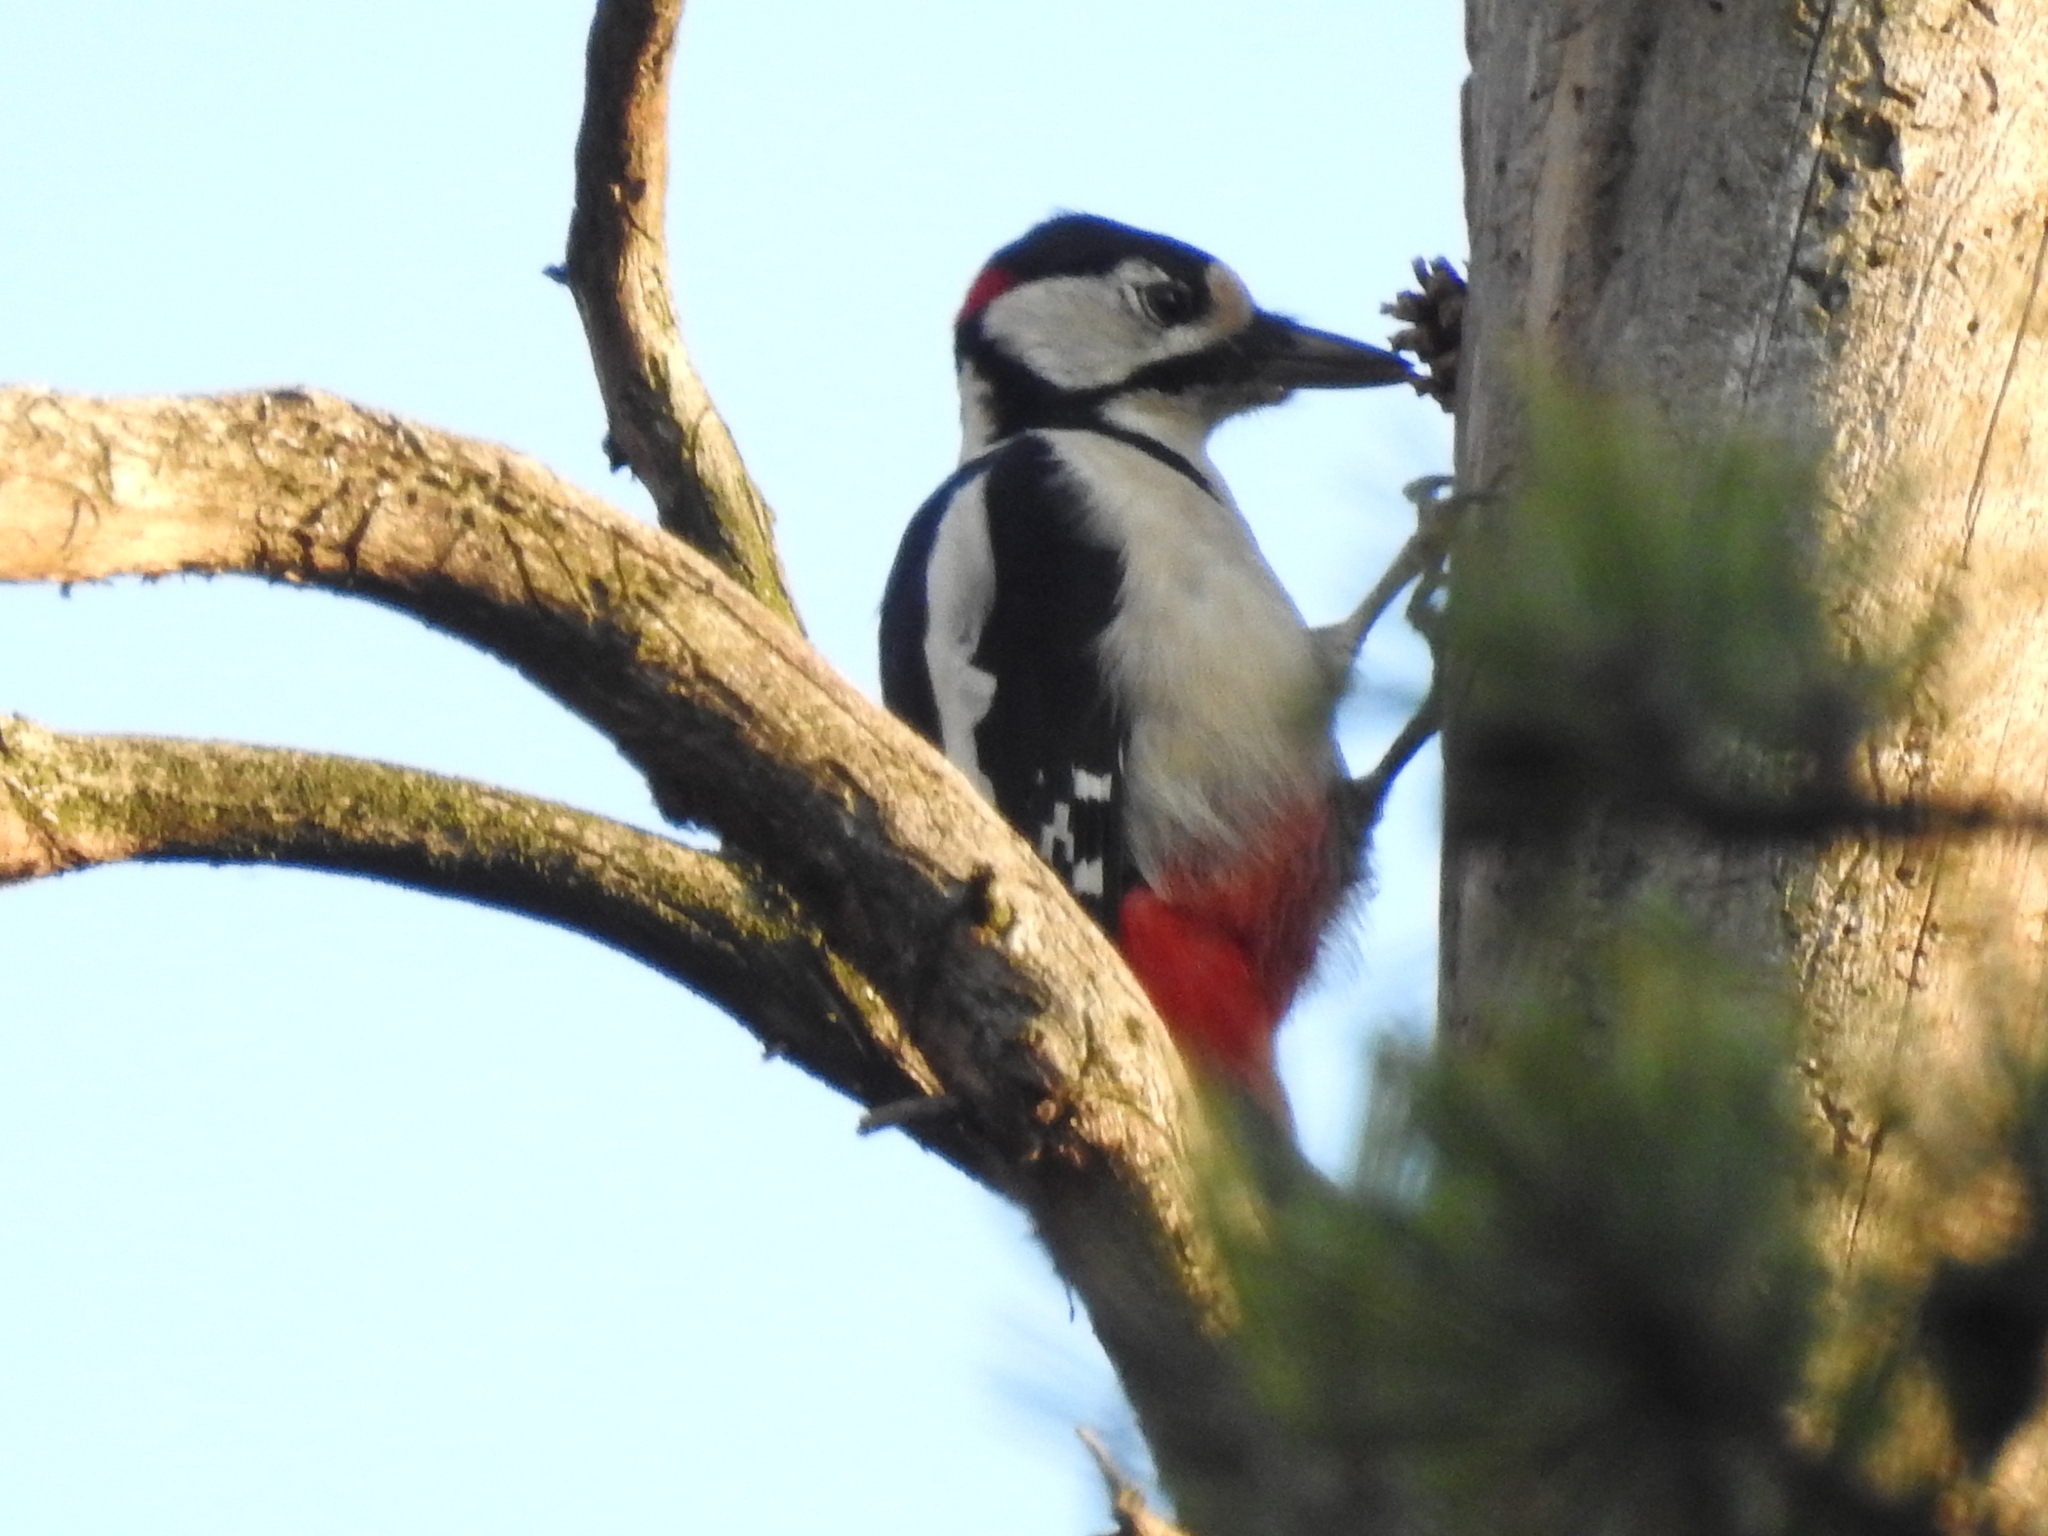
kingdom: Animalia
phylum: Chordata
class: Aves
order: Piciformes
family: Picidae
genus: Dendrocopos
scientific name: Dendrocopos major
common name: Great spotted woodpecker
